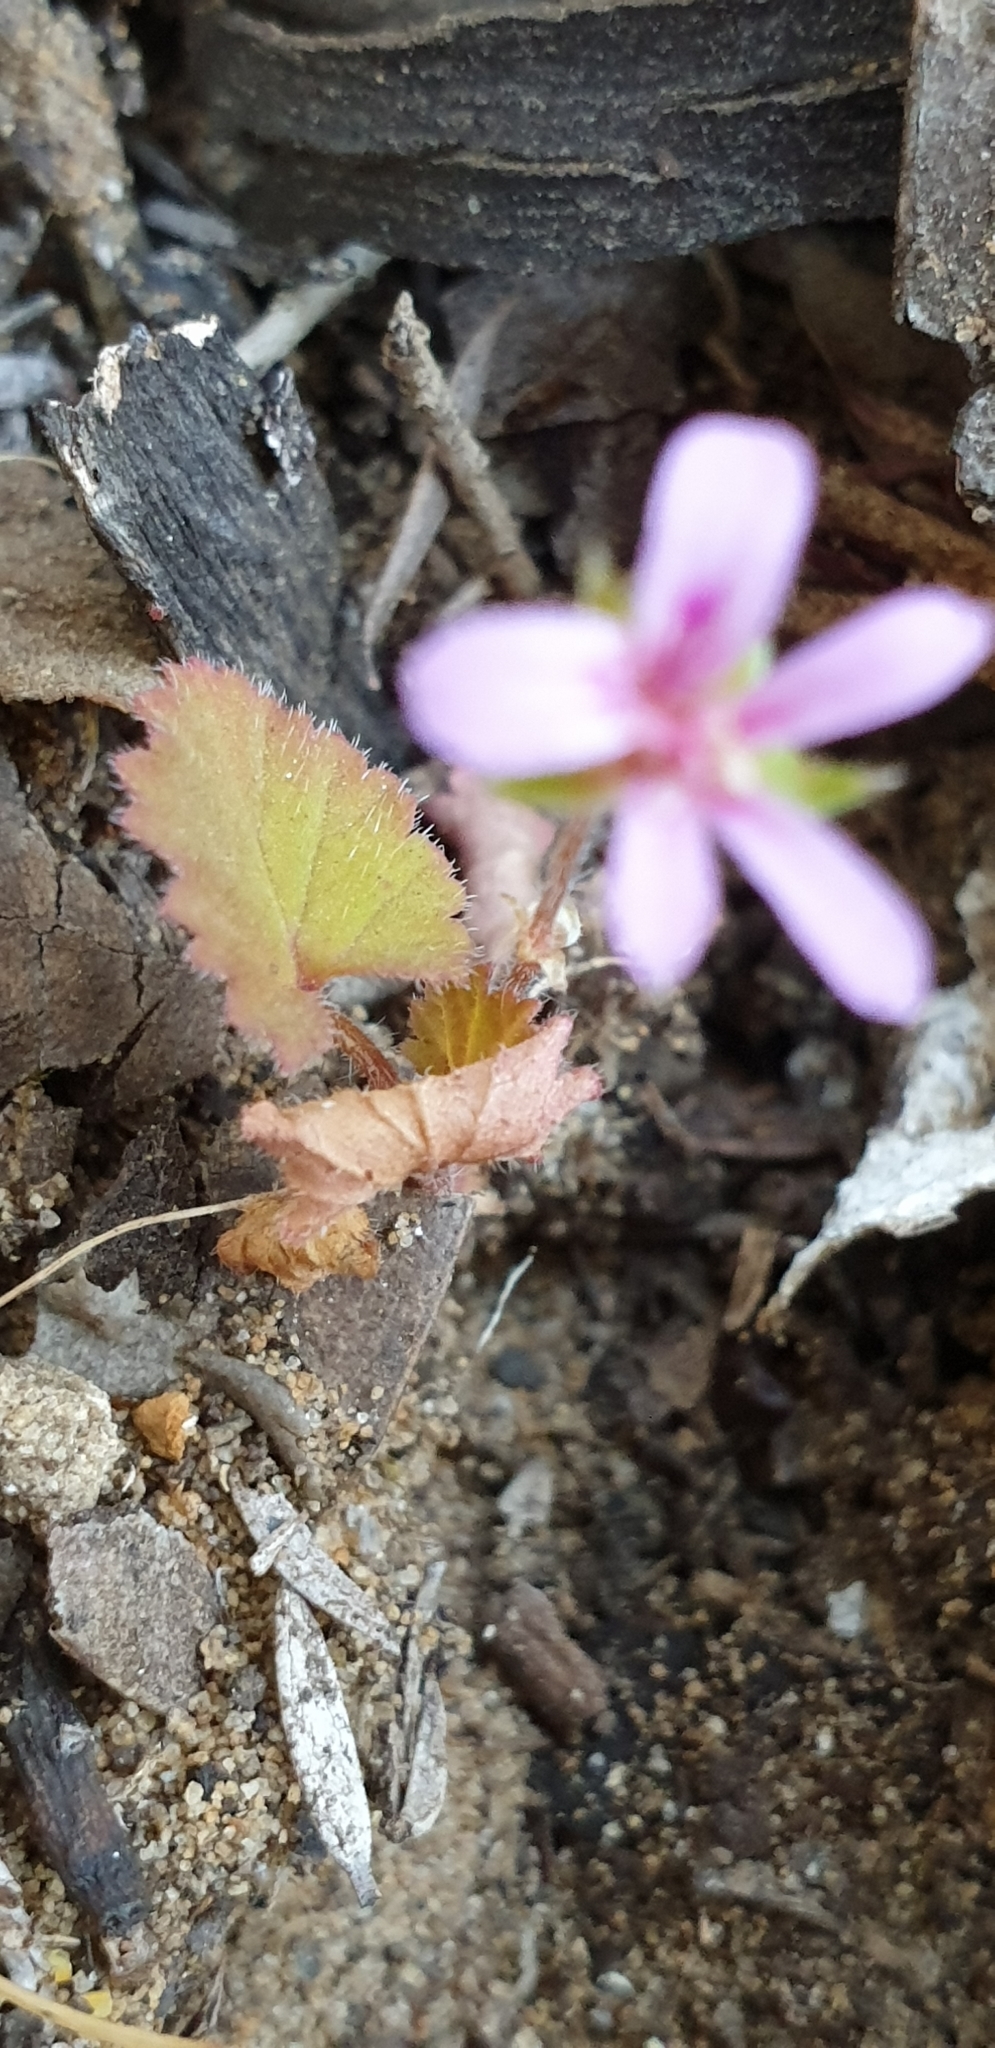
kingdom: Plantae
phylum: Tracheophyta
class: Magnoliopsida
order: Geraniales
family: Geraniaceae
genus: Pelargonium
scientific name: Pelargonium littorale
